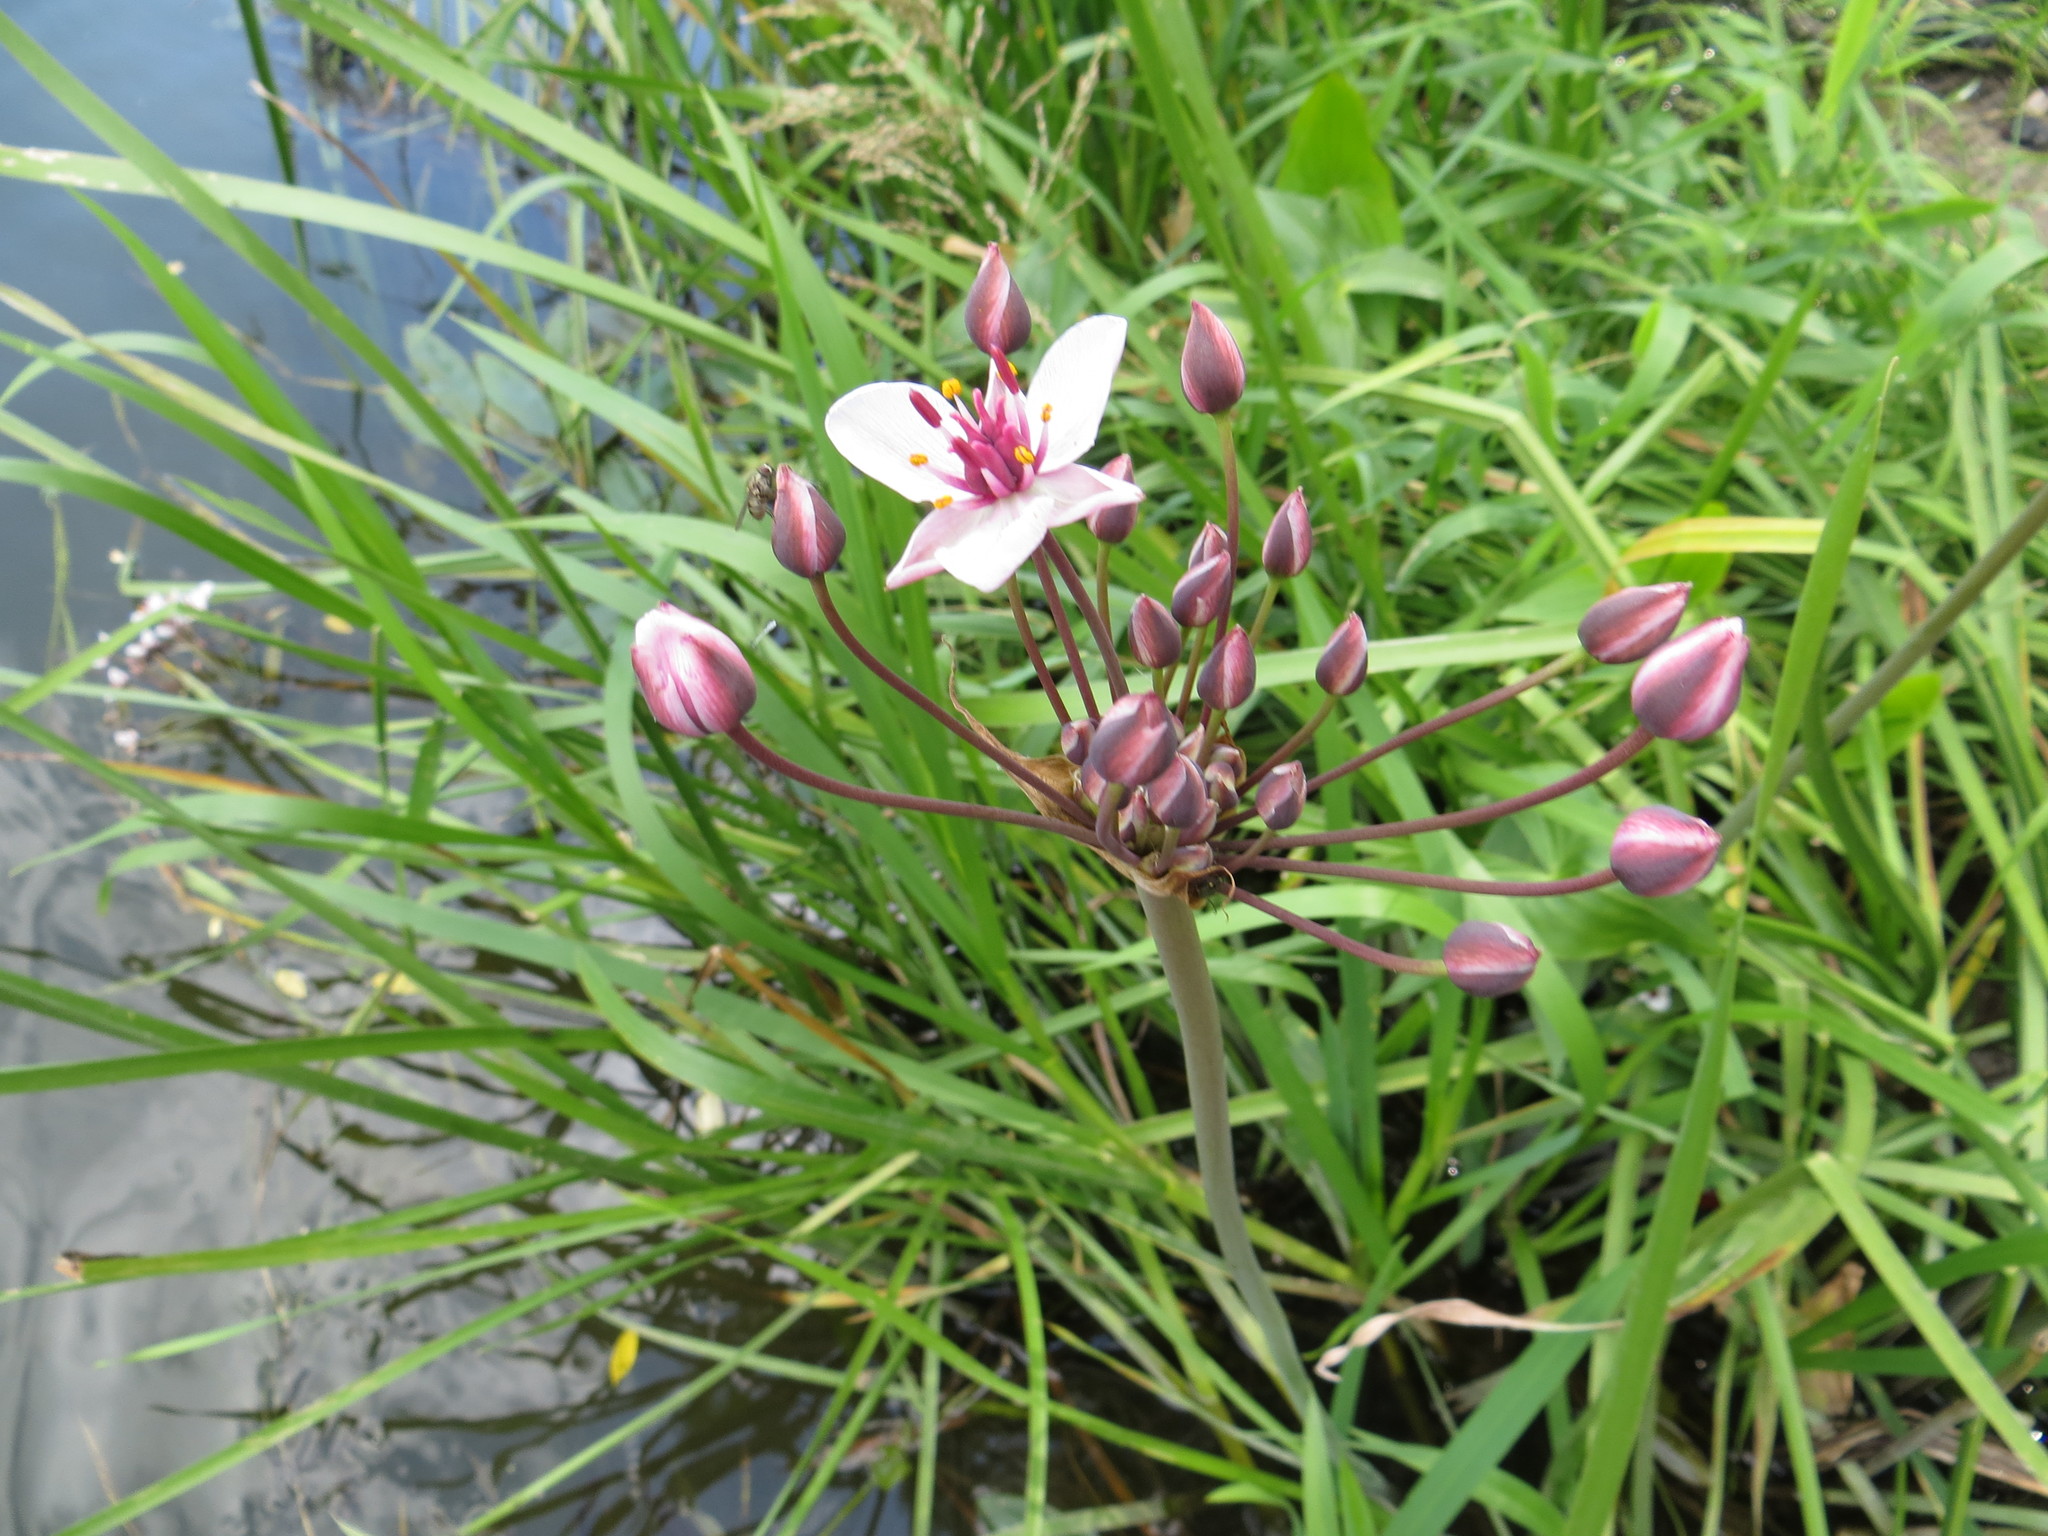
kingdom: Plantae
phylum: Tracheophyta
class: Liliopsida
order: Alismatales
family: Butomaceae
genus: Butomus
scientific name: Butomus umbellatus
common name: Flowering-rush
